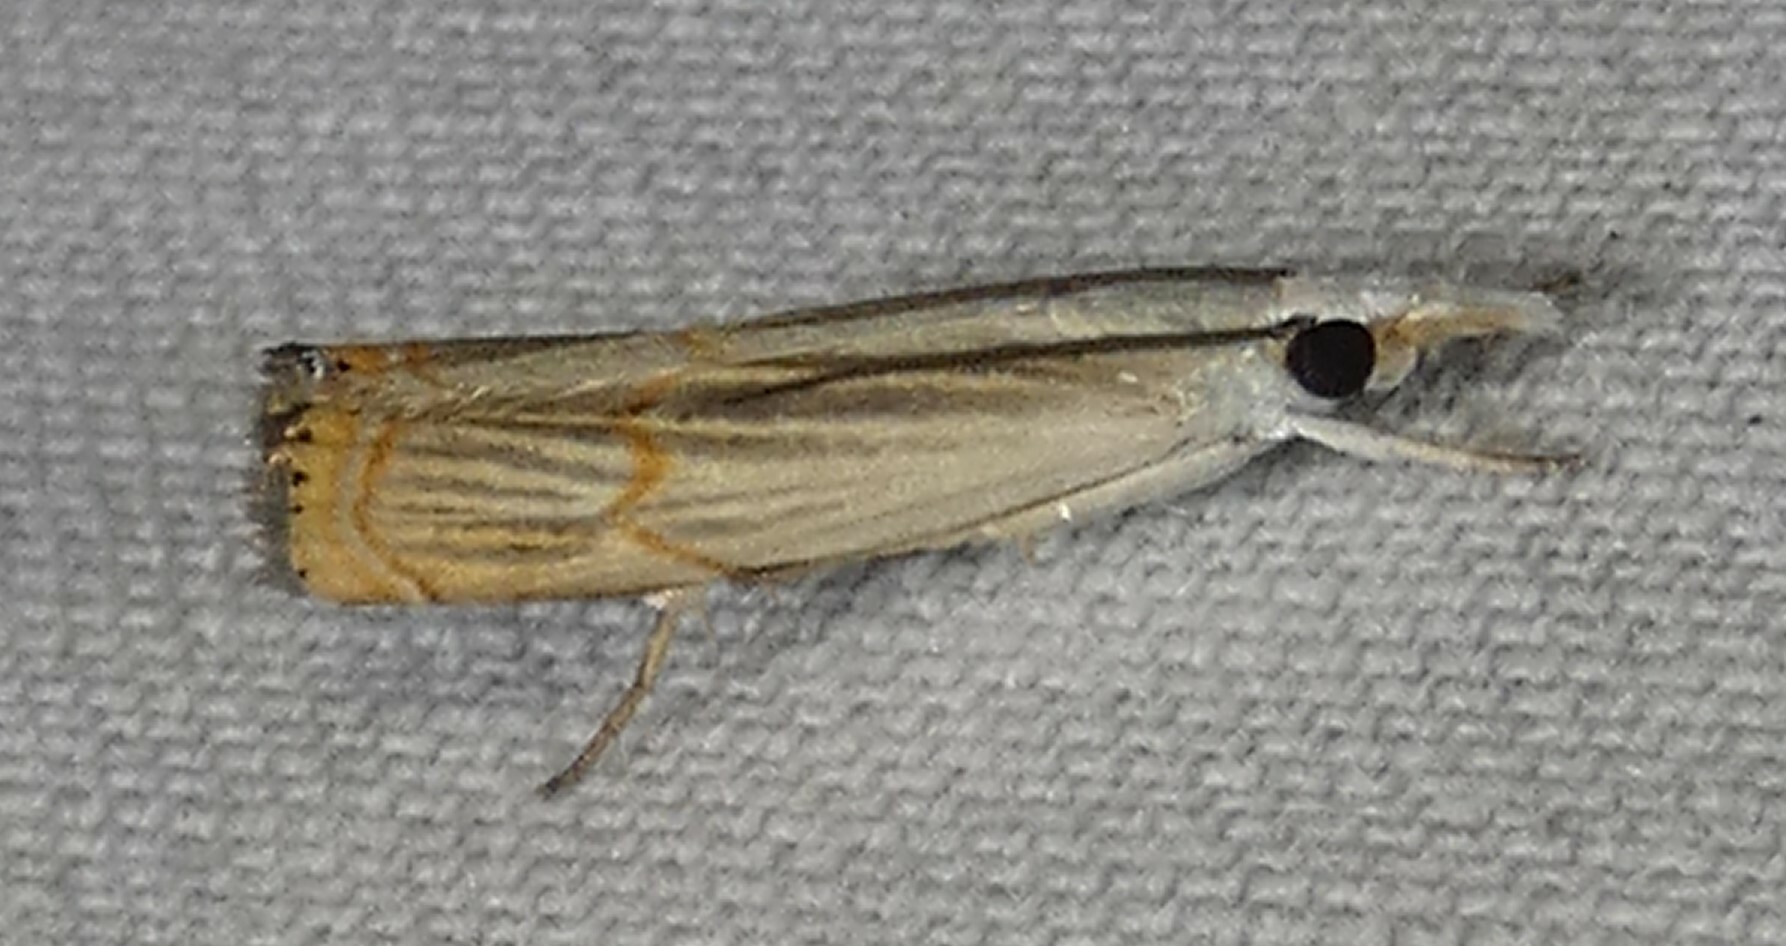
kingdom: Animalia
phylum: Arthropoda
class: Insecta
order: Lepidoptera
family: Crambidae
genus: Parapediasia
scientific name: Parapediasia decorellus
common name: Graceful grass-veneer
